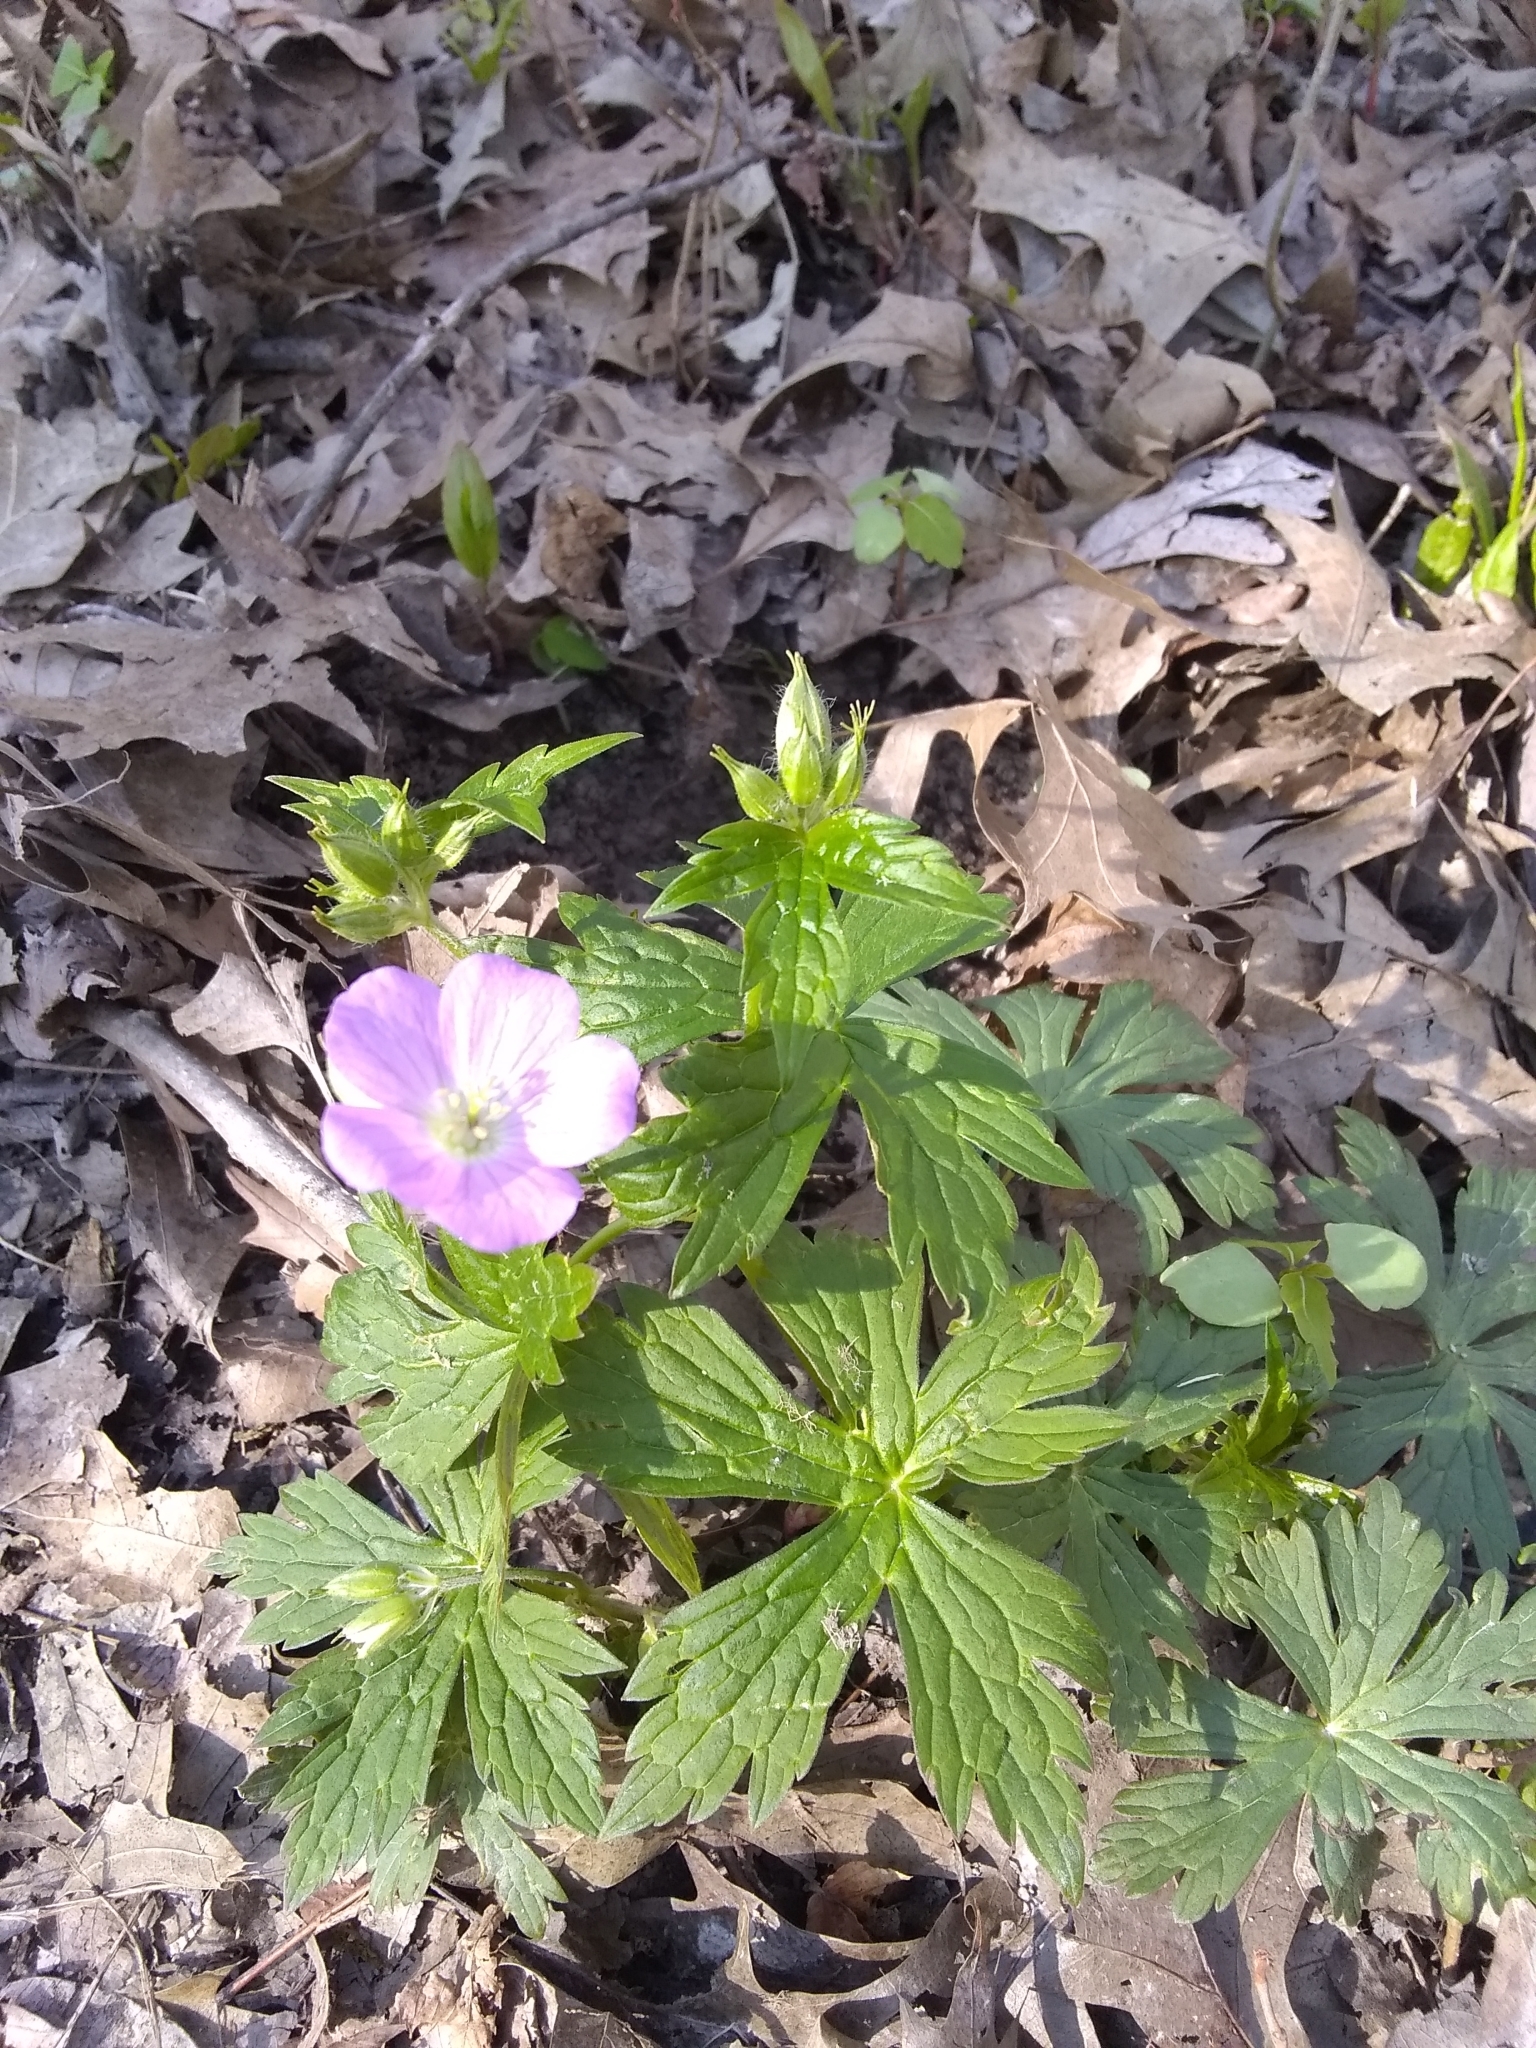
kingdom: Plantae
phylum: Tracheophyta
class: Magnoliopsida
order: Geraniales
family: Geraniaceae
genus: Geranium
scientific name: Geranium maculatum
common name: Spotted geranium
